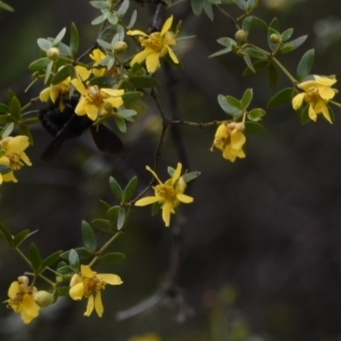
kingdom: Plantae
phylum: Tracheophyta
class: Magnoliopsida
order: Zygophyllales
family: Zygophyllaceae
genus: Larrea
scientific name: Larrea divaricata
